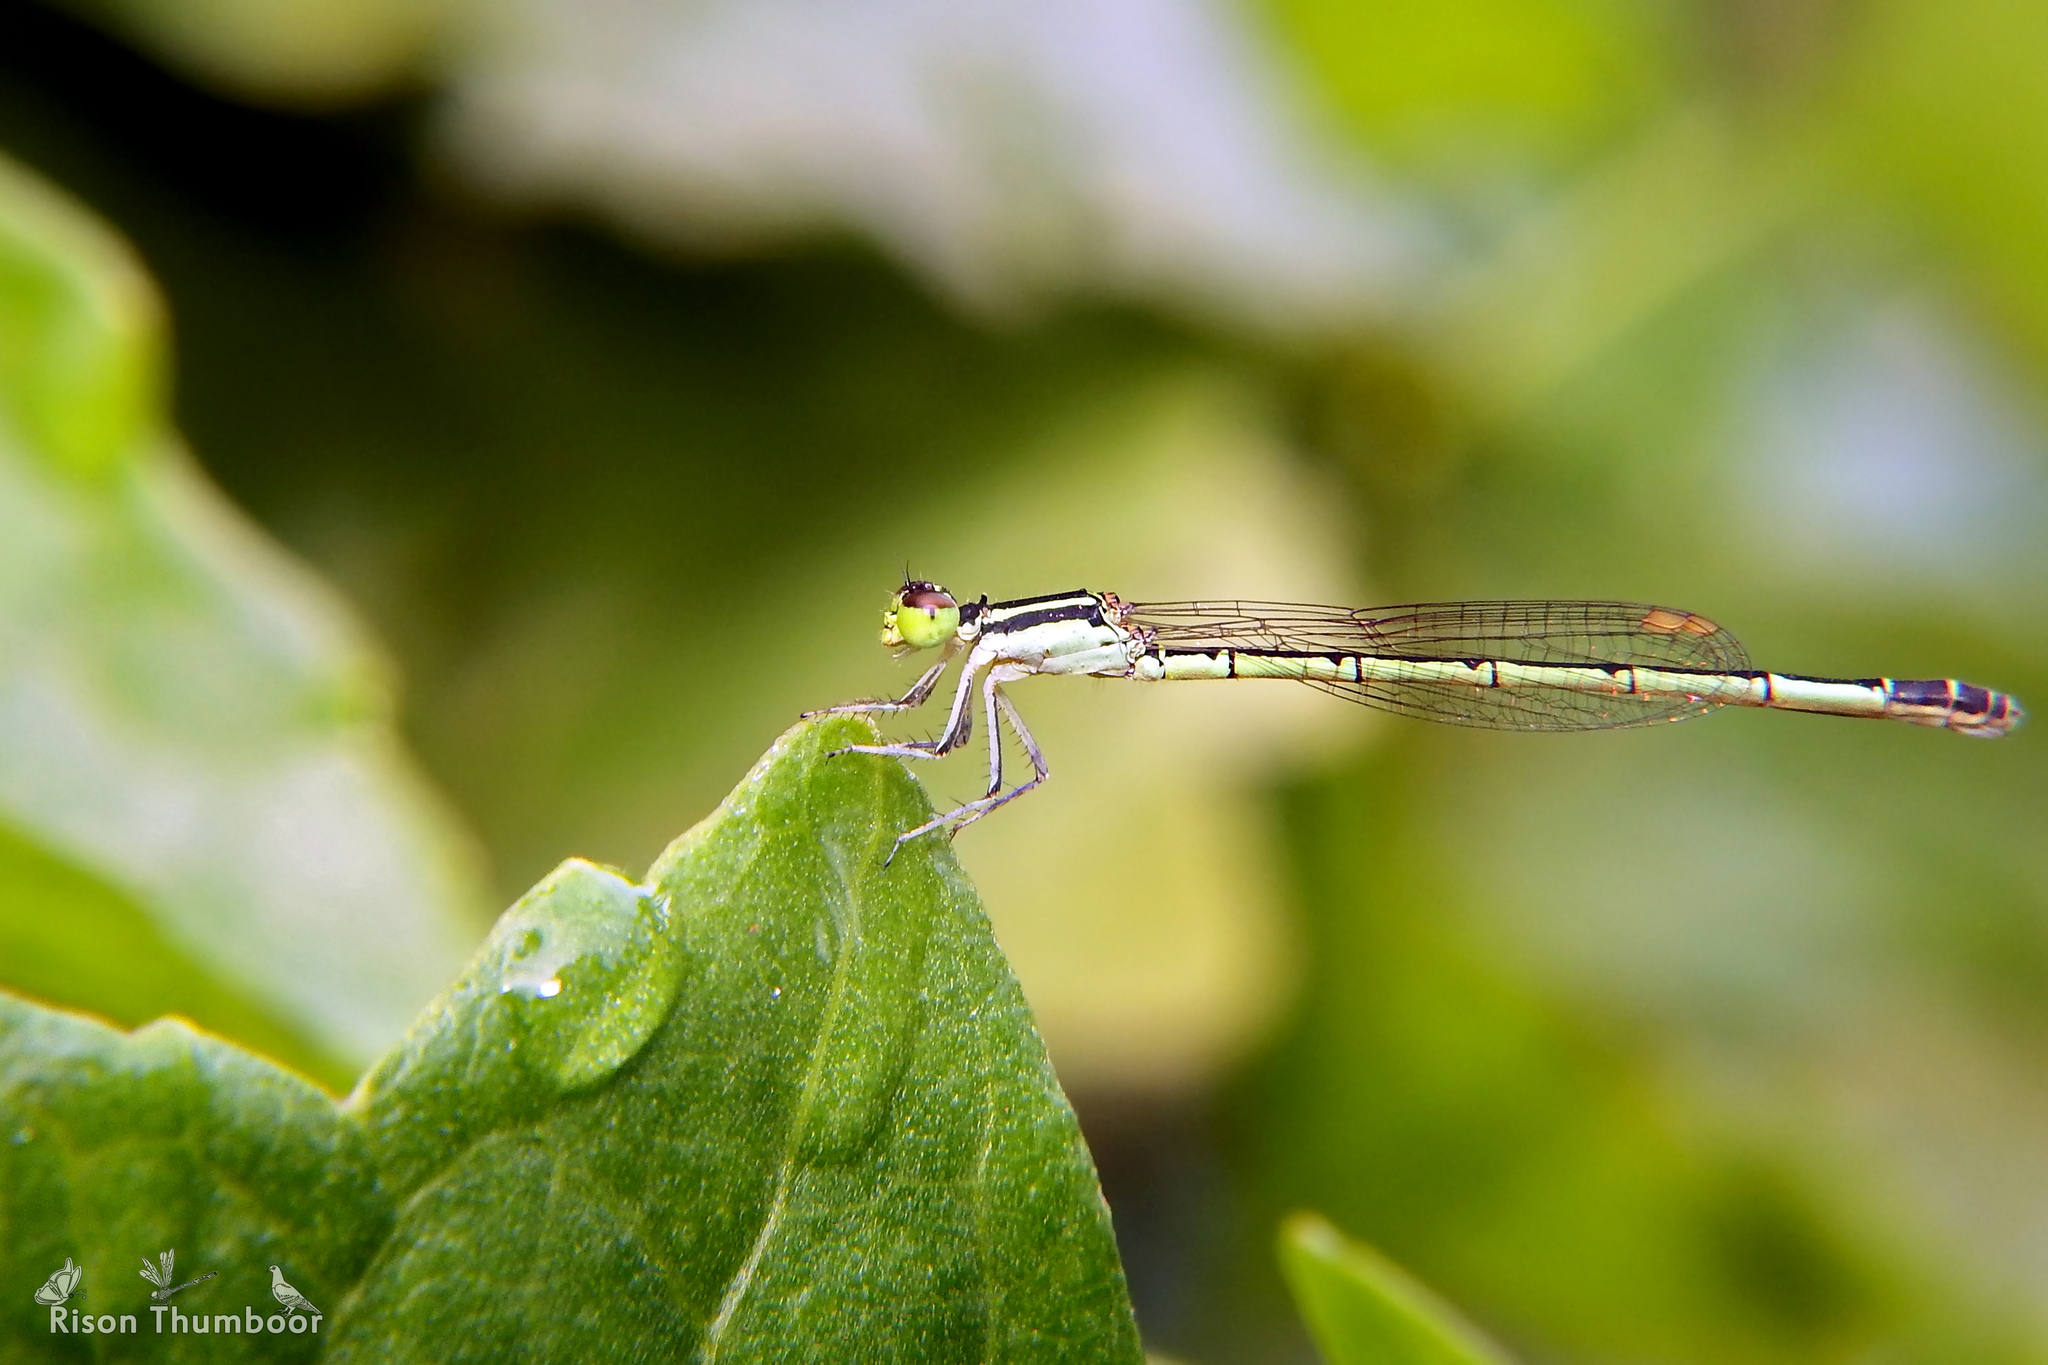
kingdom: Animalia
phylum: Arthropoda
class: Insecta
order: Odonata
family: Coenagrionidae
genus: Agriocnemis
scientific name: Agriocnemis keralensis
